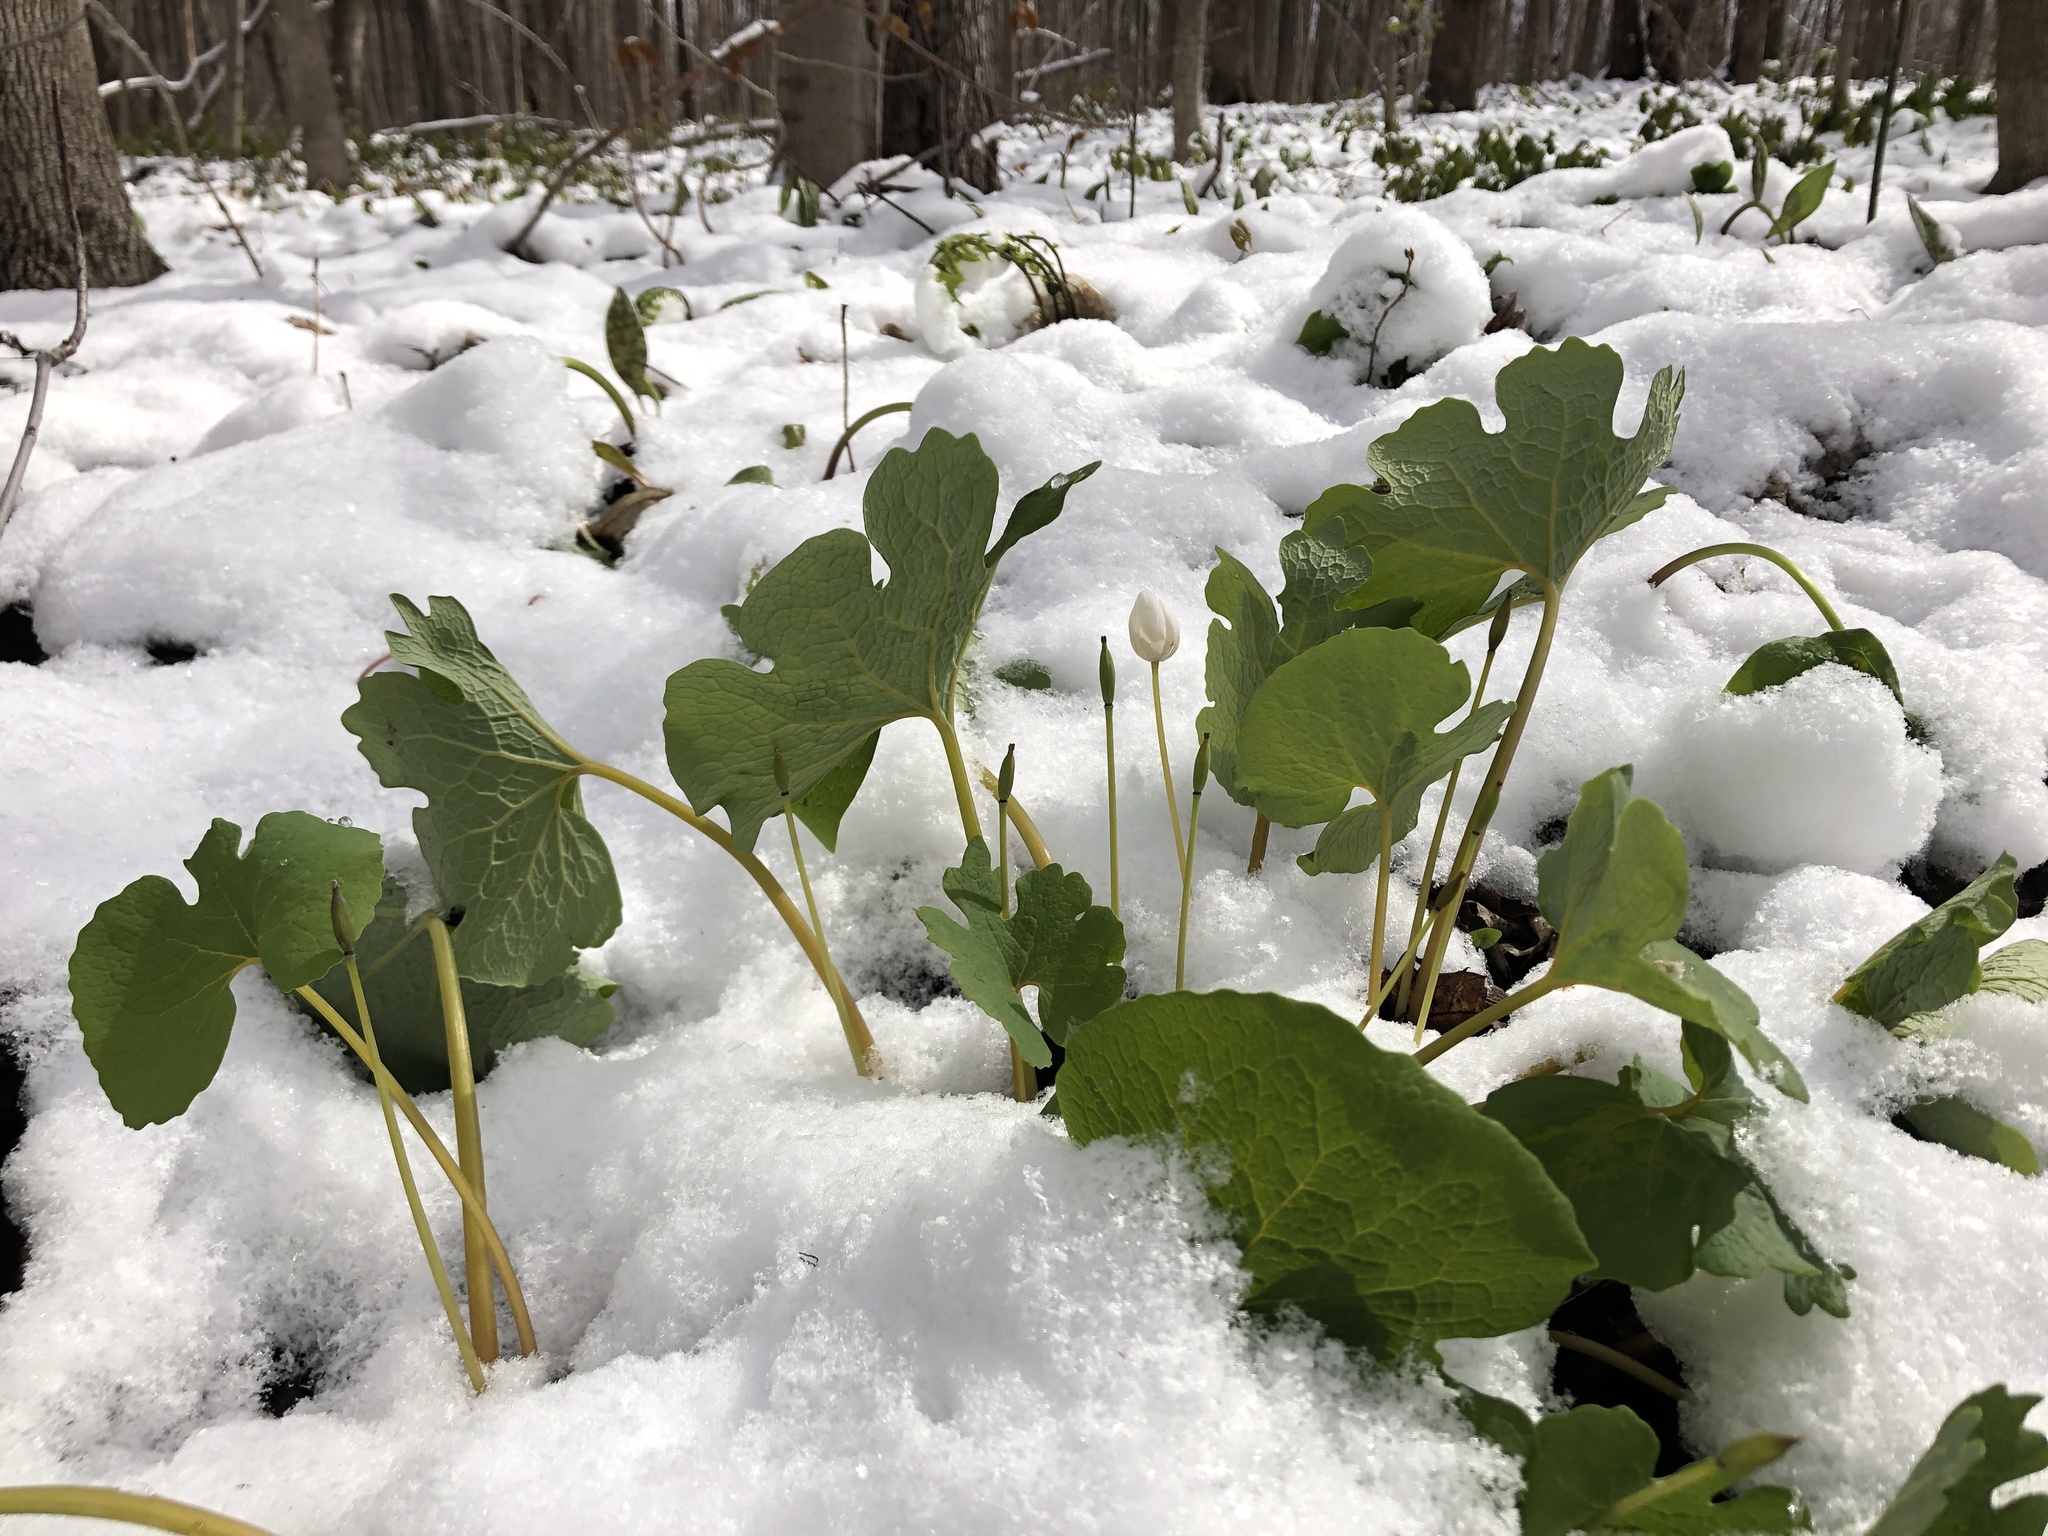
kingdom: Plantae
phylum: Tracheophyta
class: Magnoliopsida
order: Ranunculales
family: Papaveraceae
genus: Sanguinaria
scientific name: Sanguinaria canadensis
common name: Bloodroot
